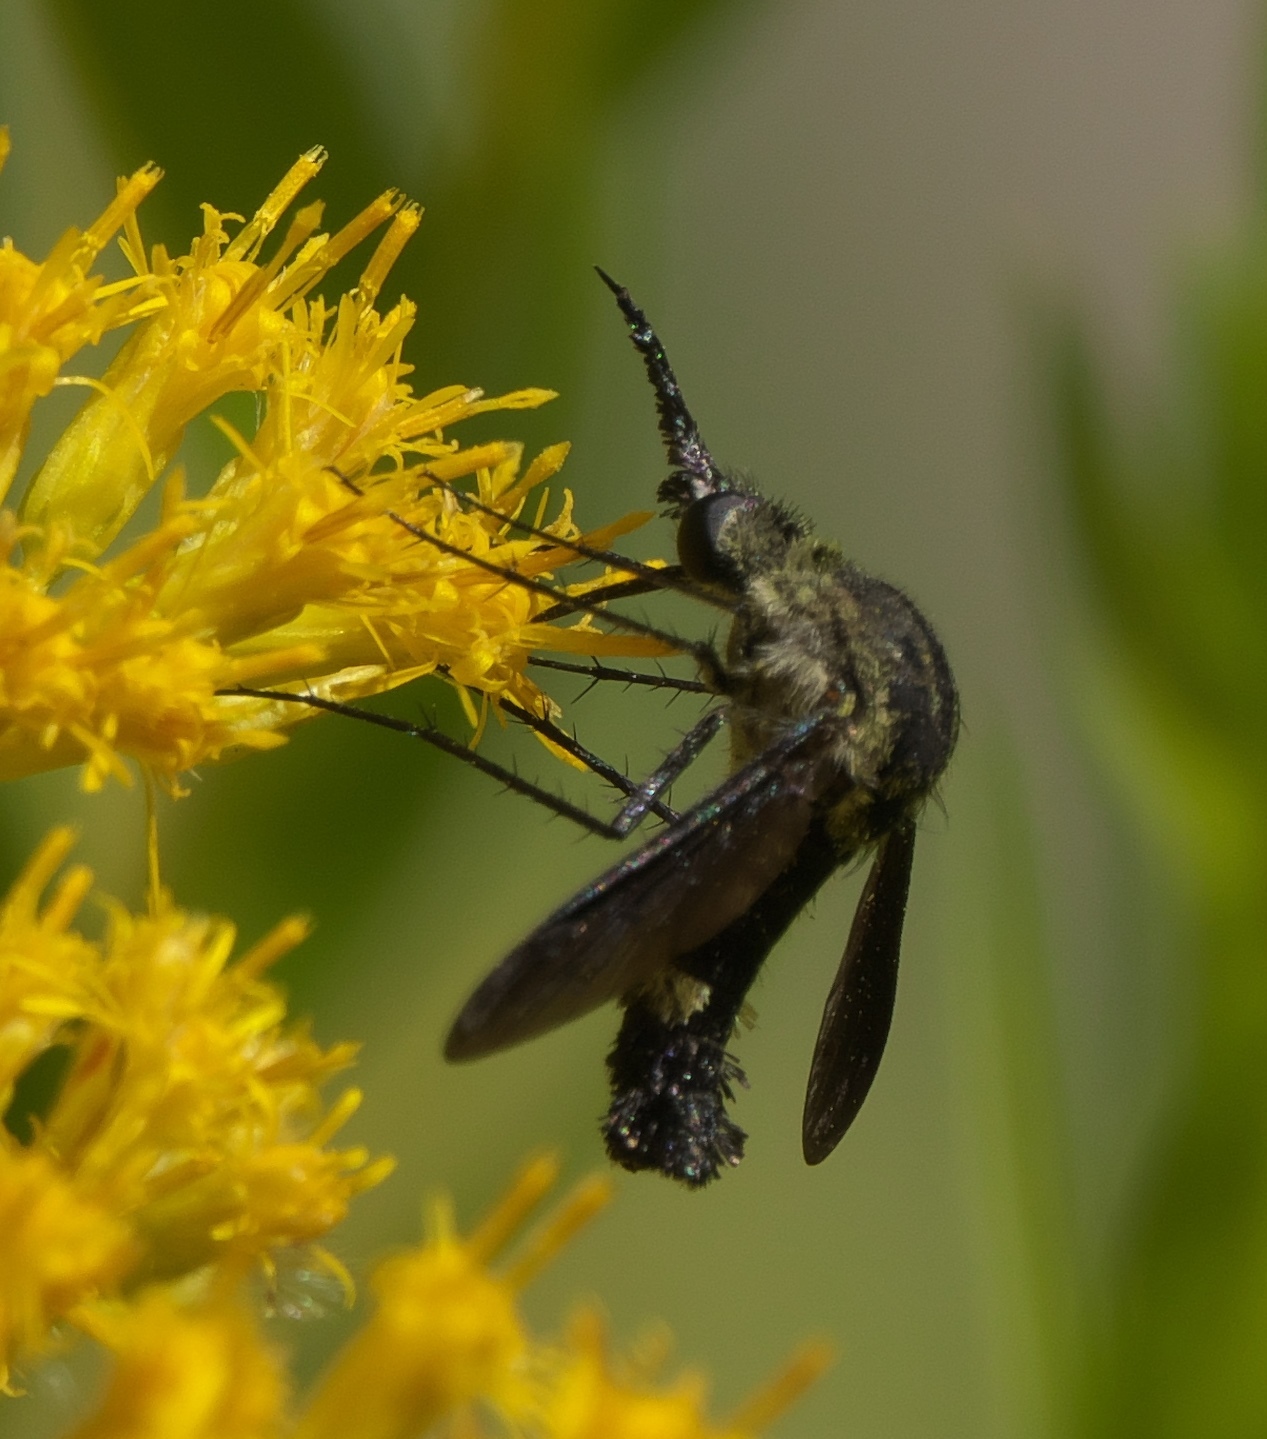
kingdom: Animalia
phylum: Arthropoda
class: Insecta
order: Diptera
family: Bombyliidae
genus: Lepidophora
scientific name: Lepidophora lepidocera
